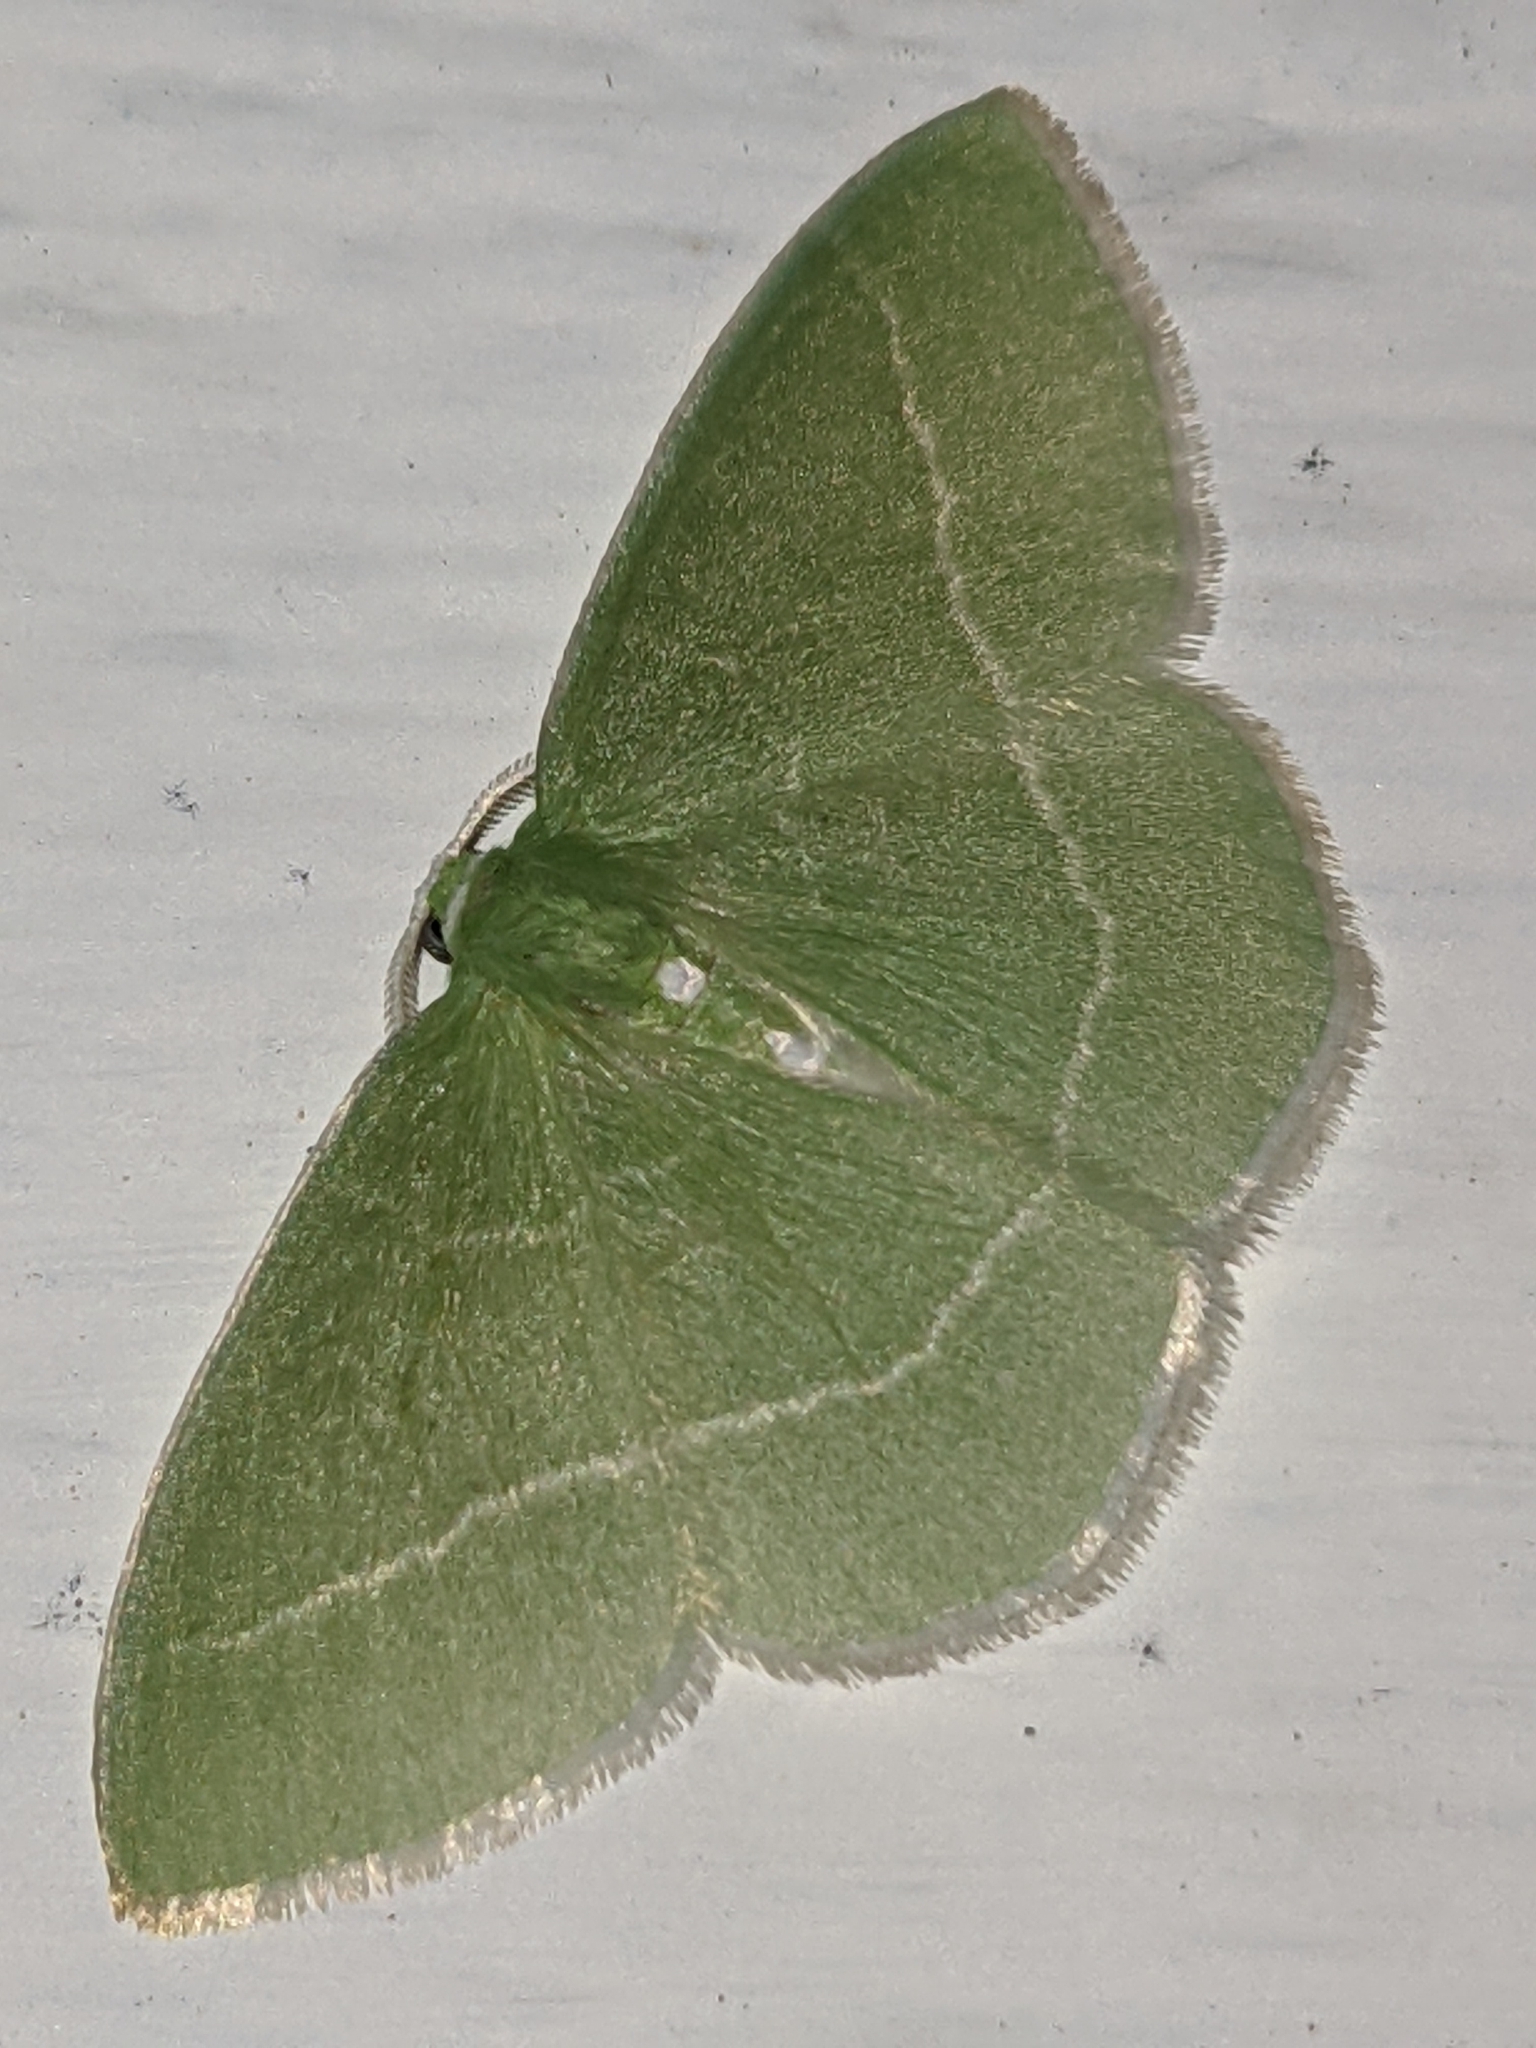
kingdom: Animalia
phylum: Arthropoda
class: Insecta
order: Lepidoptera
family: Geometridae
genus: Nemoria
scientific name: Nemoria mimosaria
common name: White-fringed emerald
